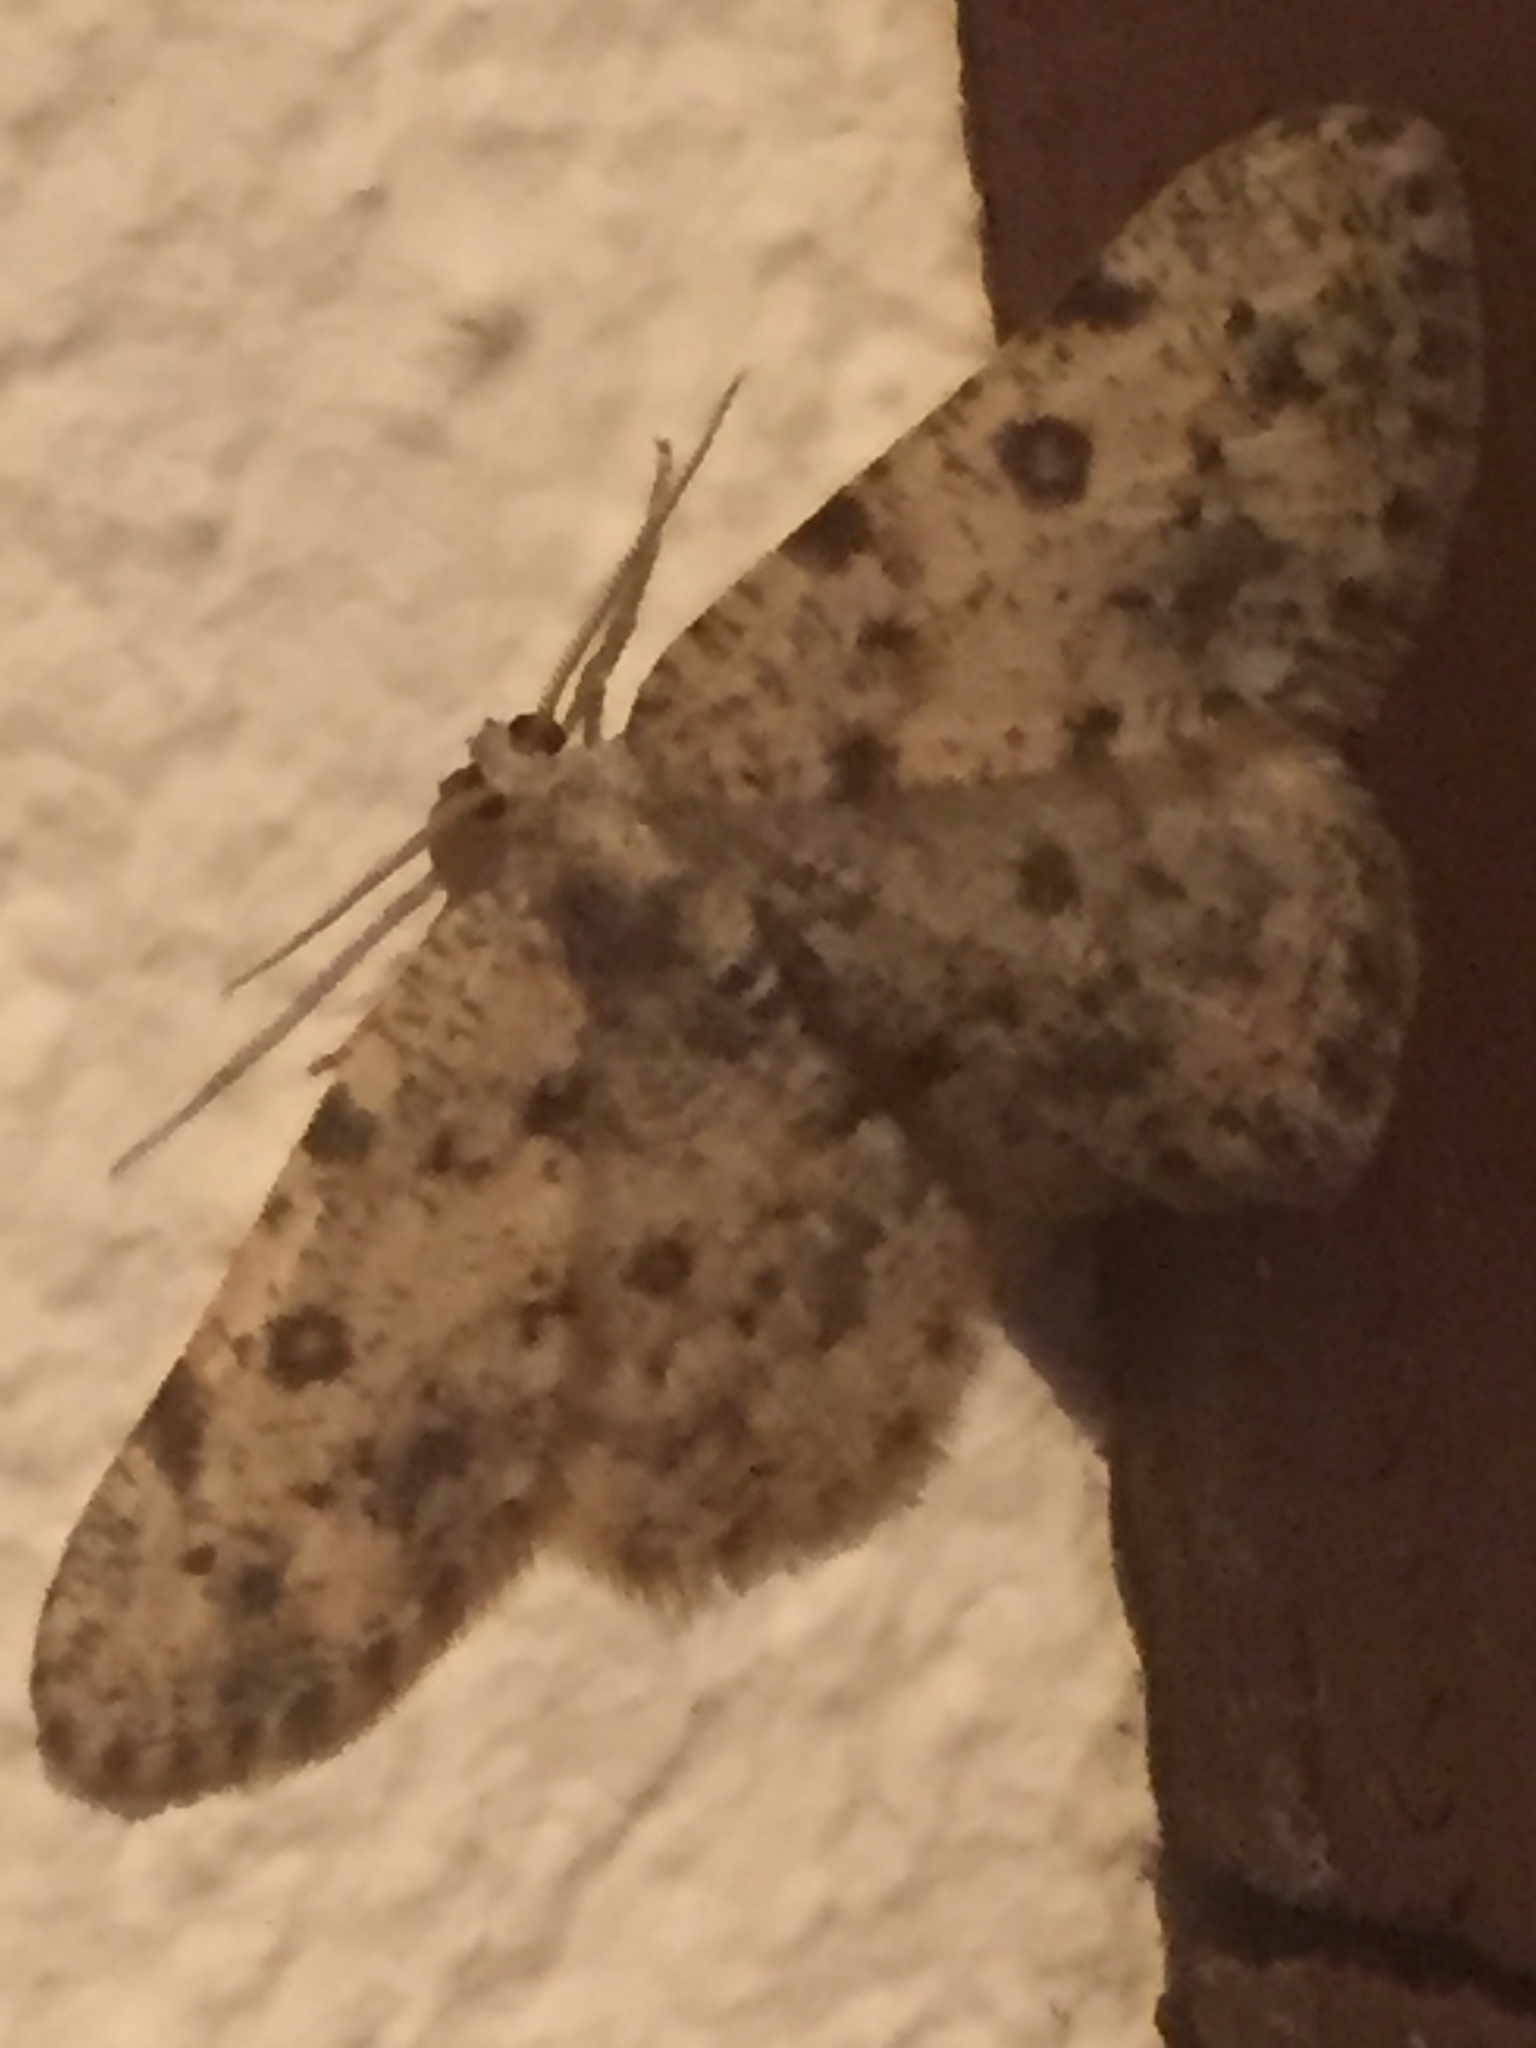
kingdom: Animalia
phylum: Arthropoda
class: Insecta
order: Lepidoptera
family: Geometridae
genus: Charissa
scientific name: Charissa mucidaria
